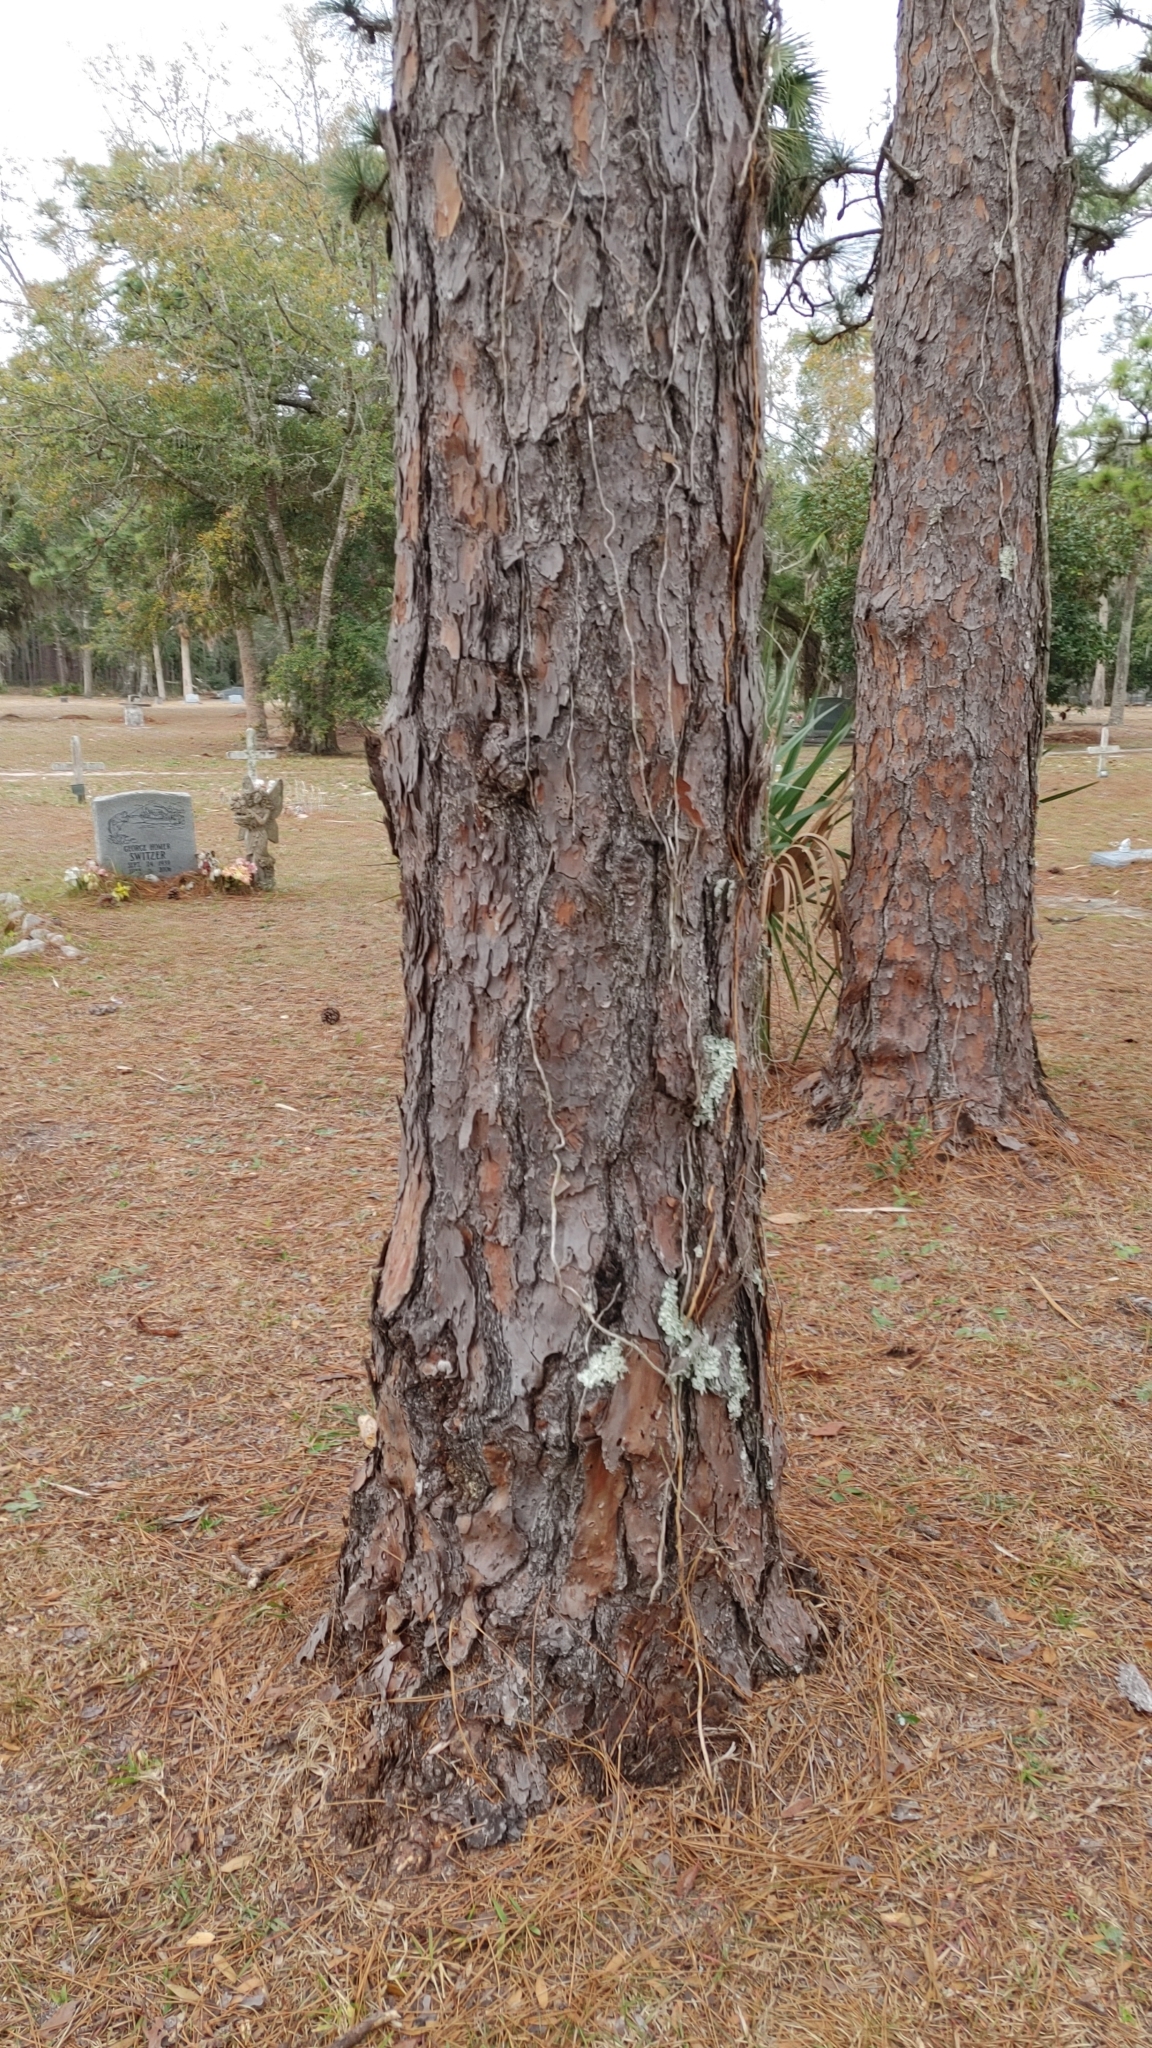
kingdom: Plantae
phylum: Tracheophyta
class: Pinopsida
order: Pinales
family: Pinaceae
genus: Pinus
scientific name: Pinus palustris
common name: Longleaf pine
